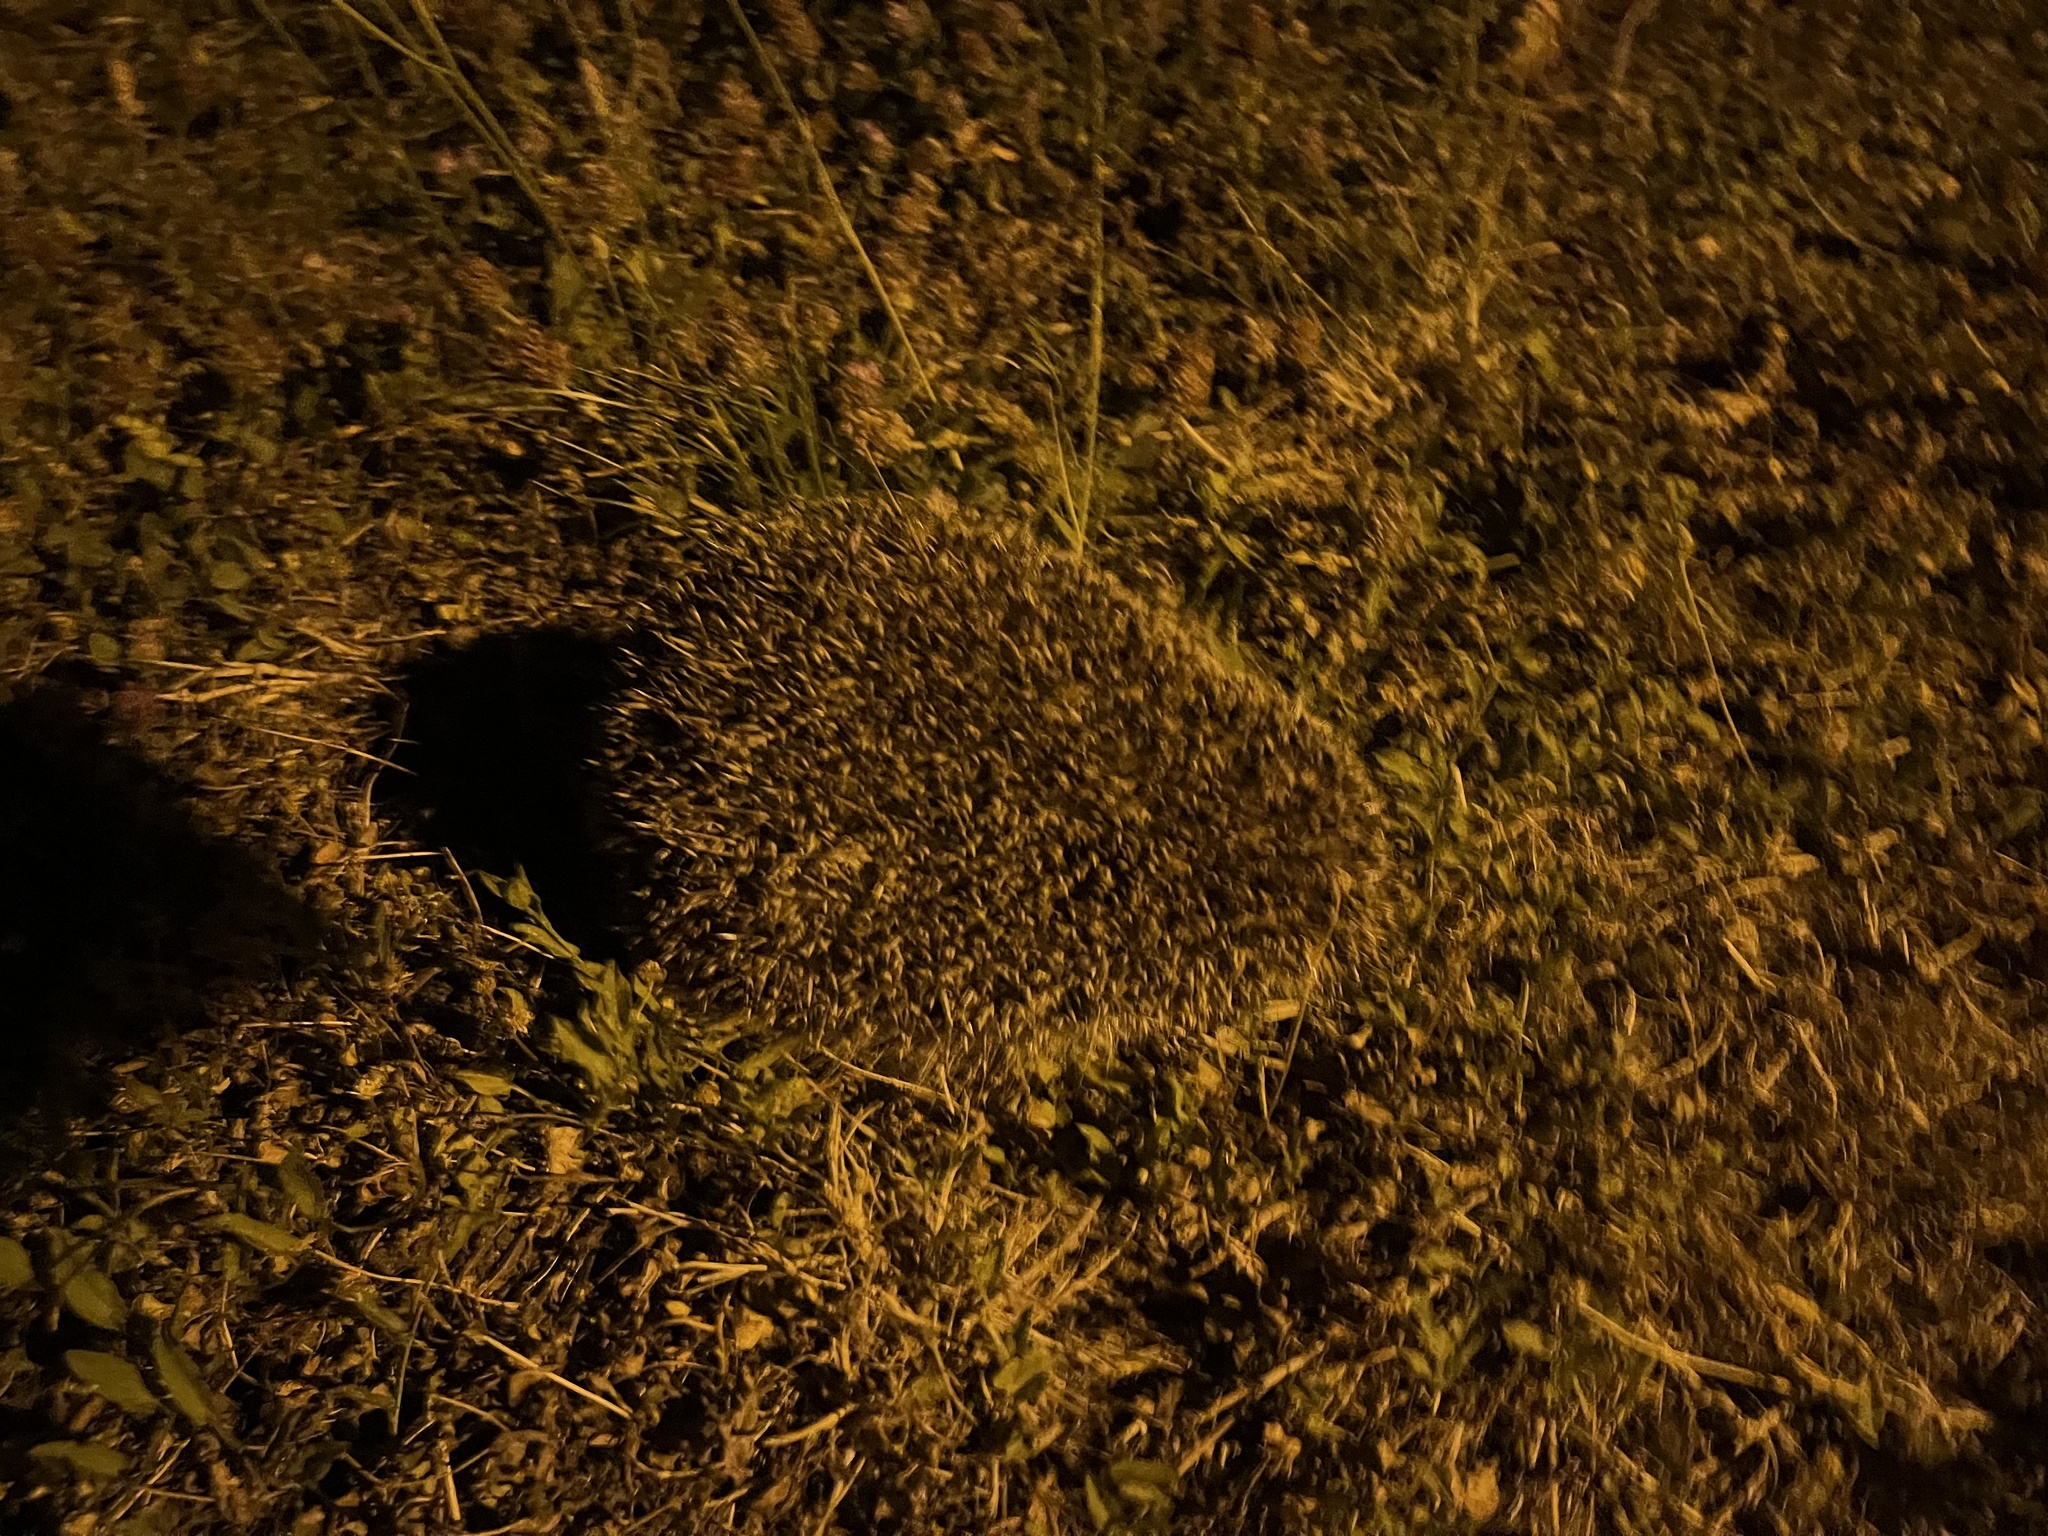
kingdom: Animalia
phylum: Chordata
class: Mammalia
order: Erinaceomorpha
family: Erinaceidae
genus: Erinaceus
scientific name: Erinaceus europaeus
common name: West european hedgehog
